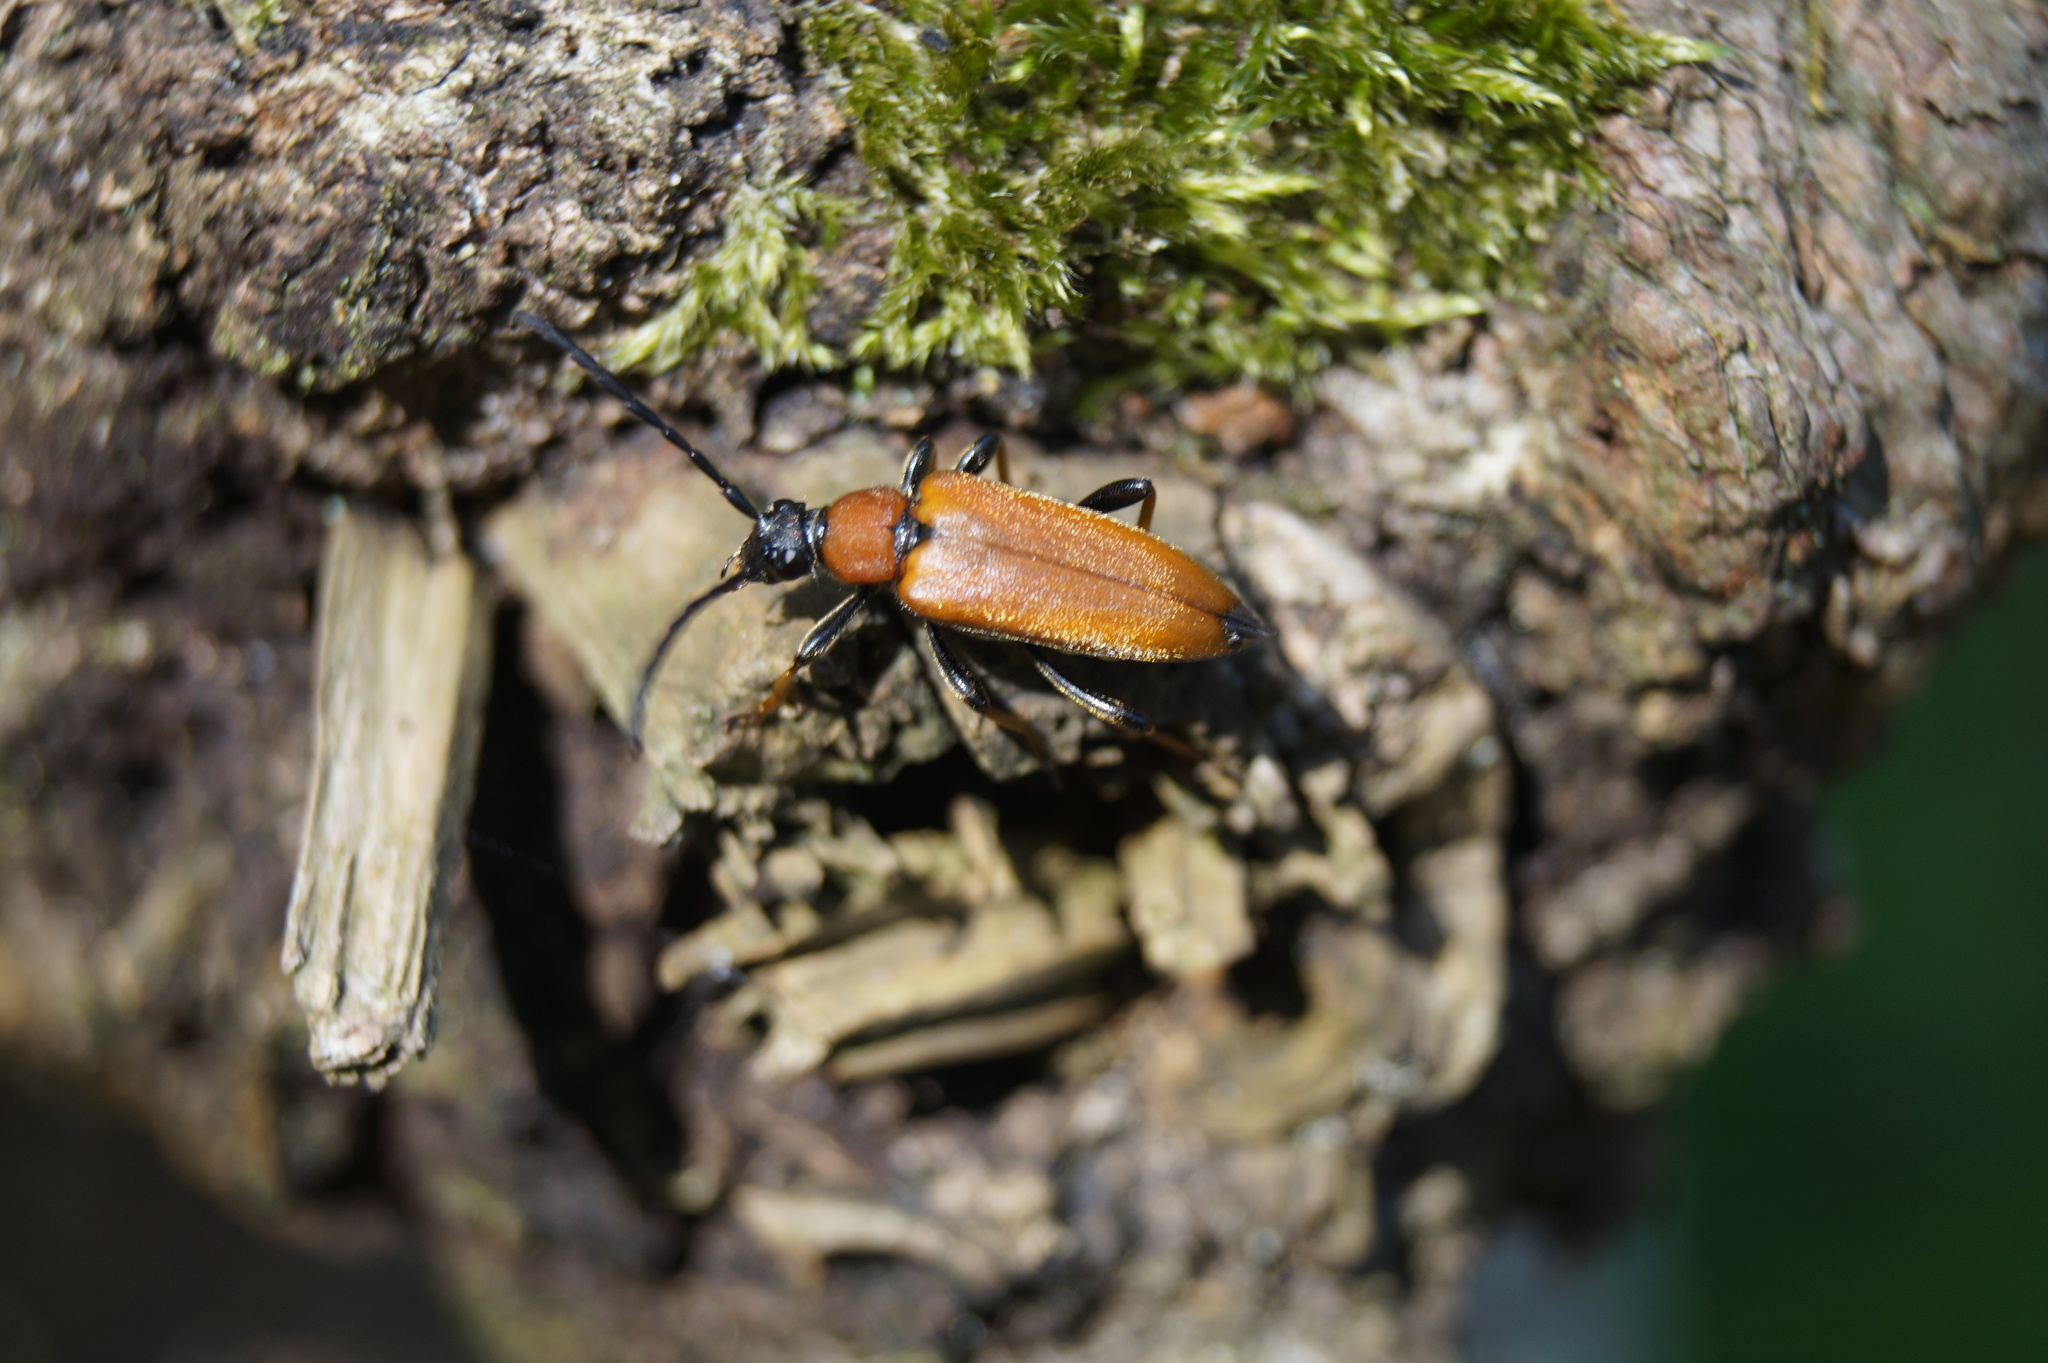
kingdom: Animalia
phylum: Arthropoda
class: Insecta
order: Coleoptera
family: Cerambycidae
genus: Stictoleptura
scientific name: Stictoleptura rubra
